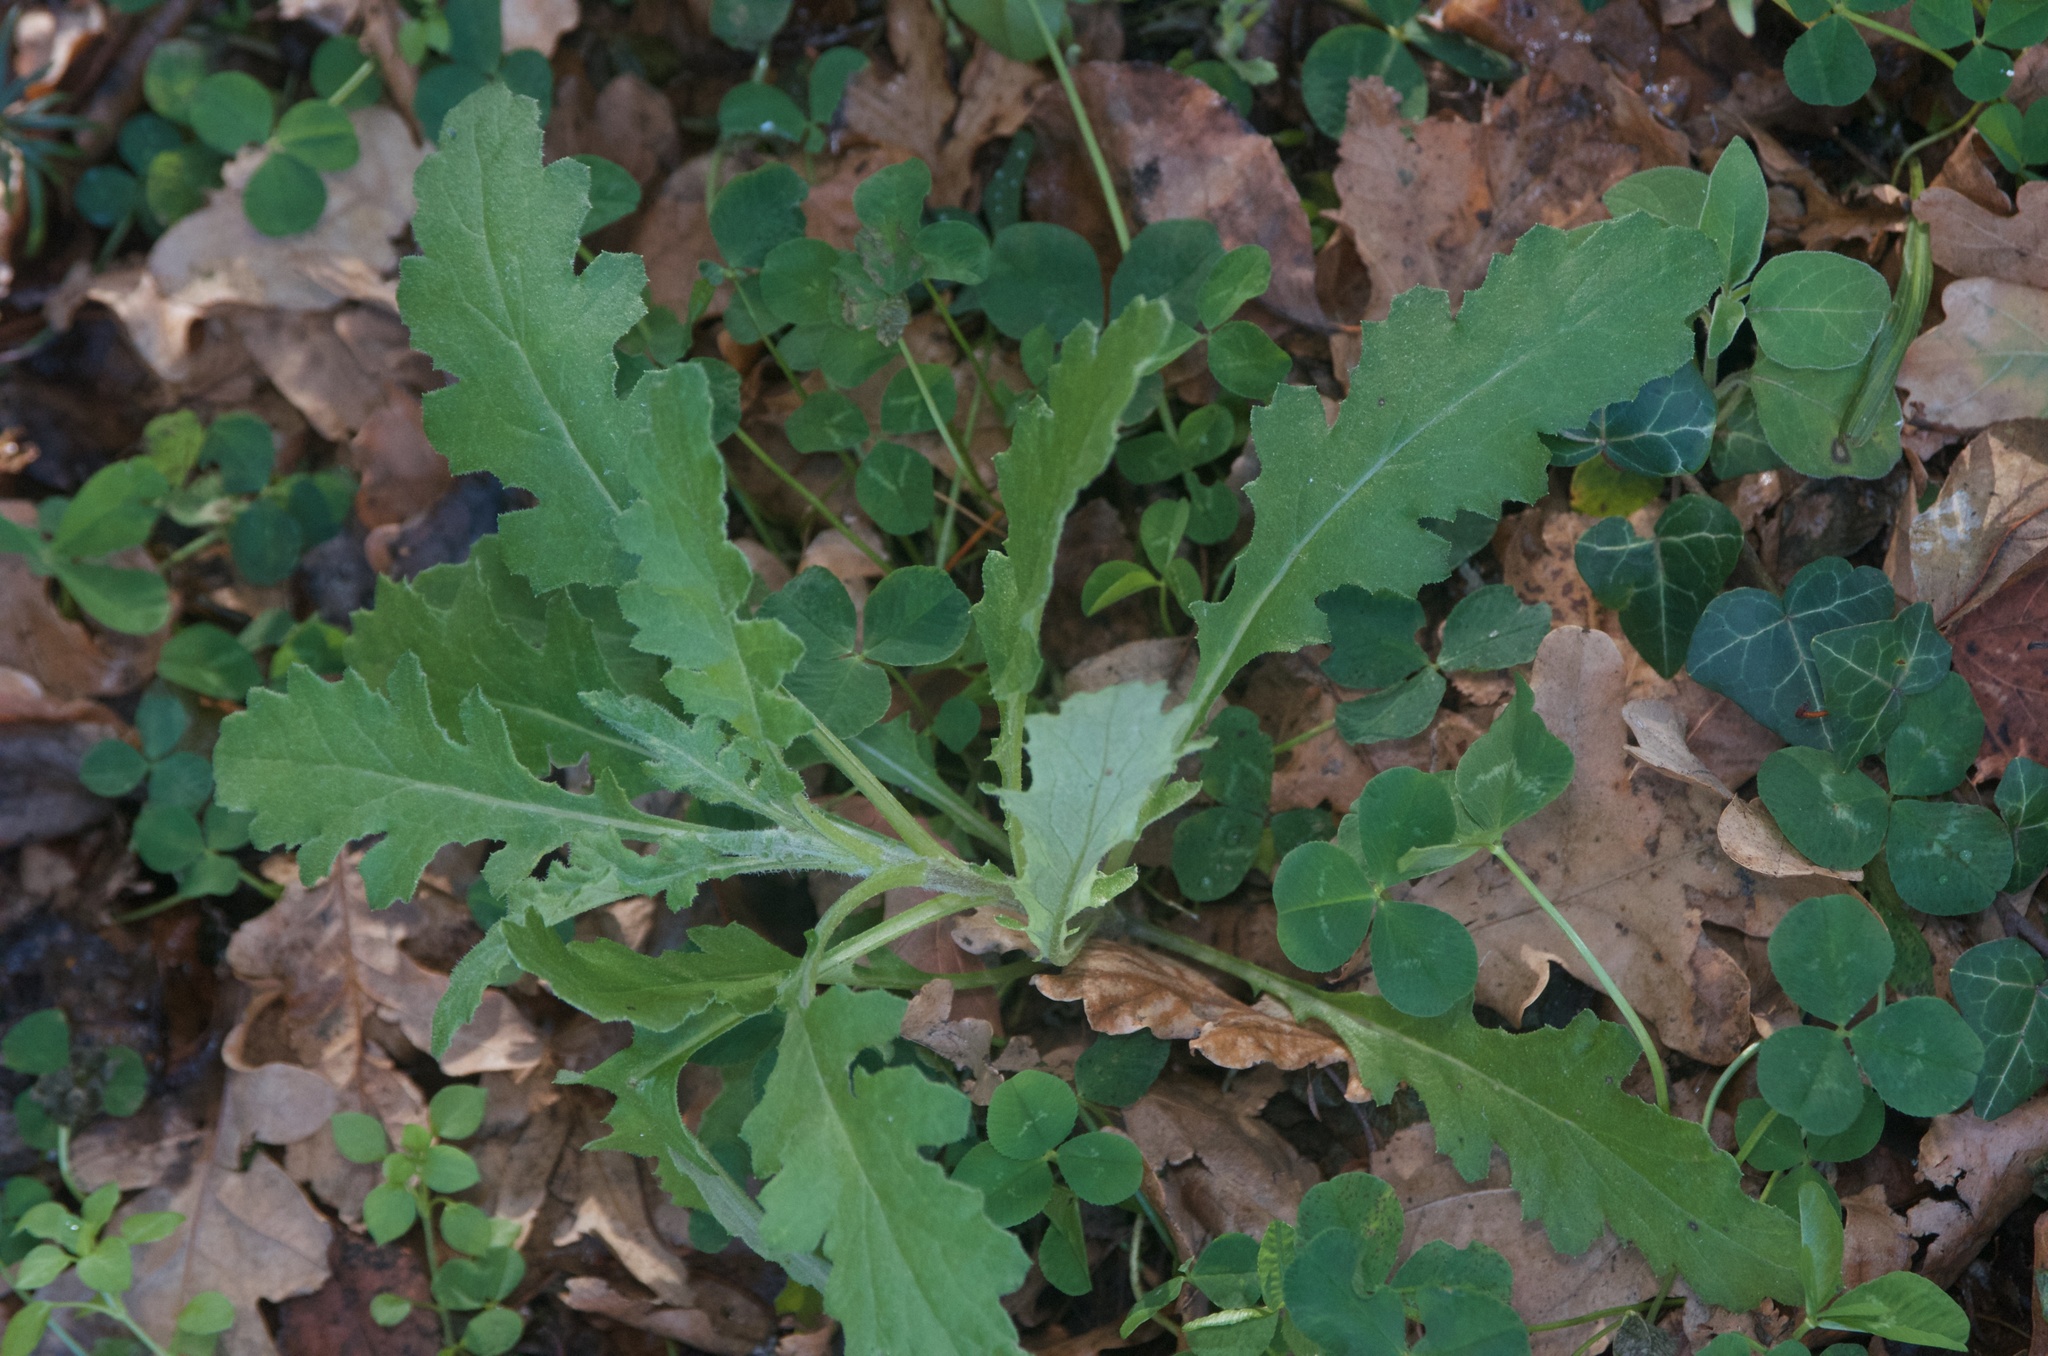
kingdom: Plantae
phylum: Tracheophyta
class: Magnoliopsida
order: Asterales
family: Asteraceae
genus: Senecio
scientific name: Senecio glomeratus
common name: Cutleaf burnweed
